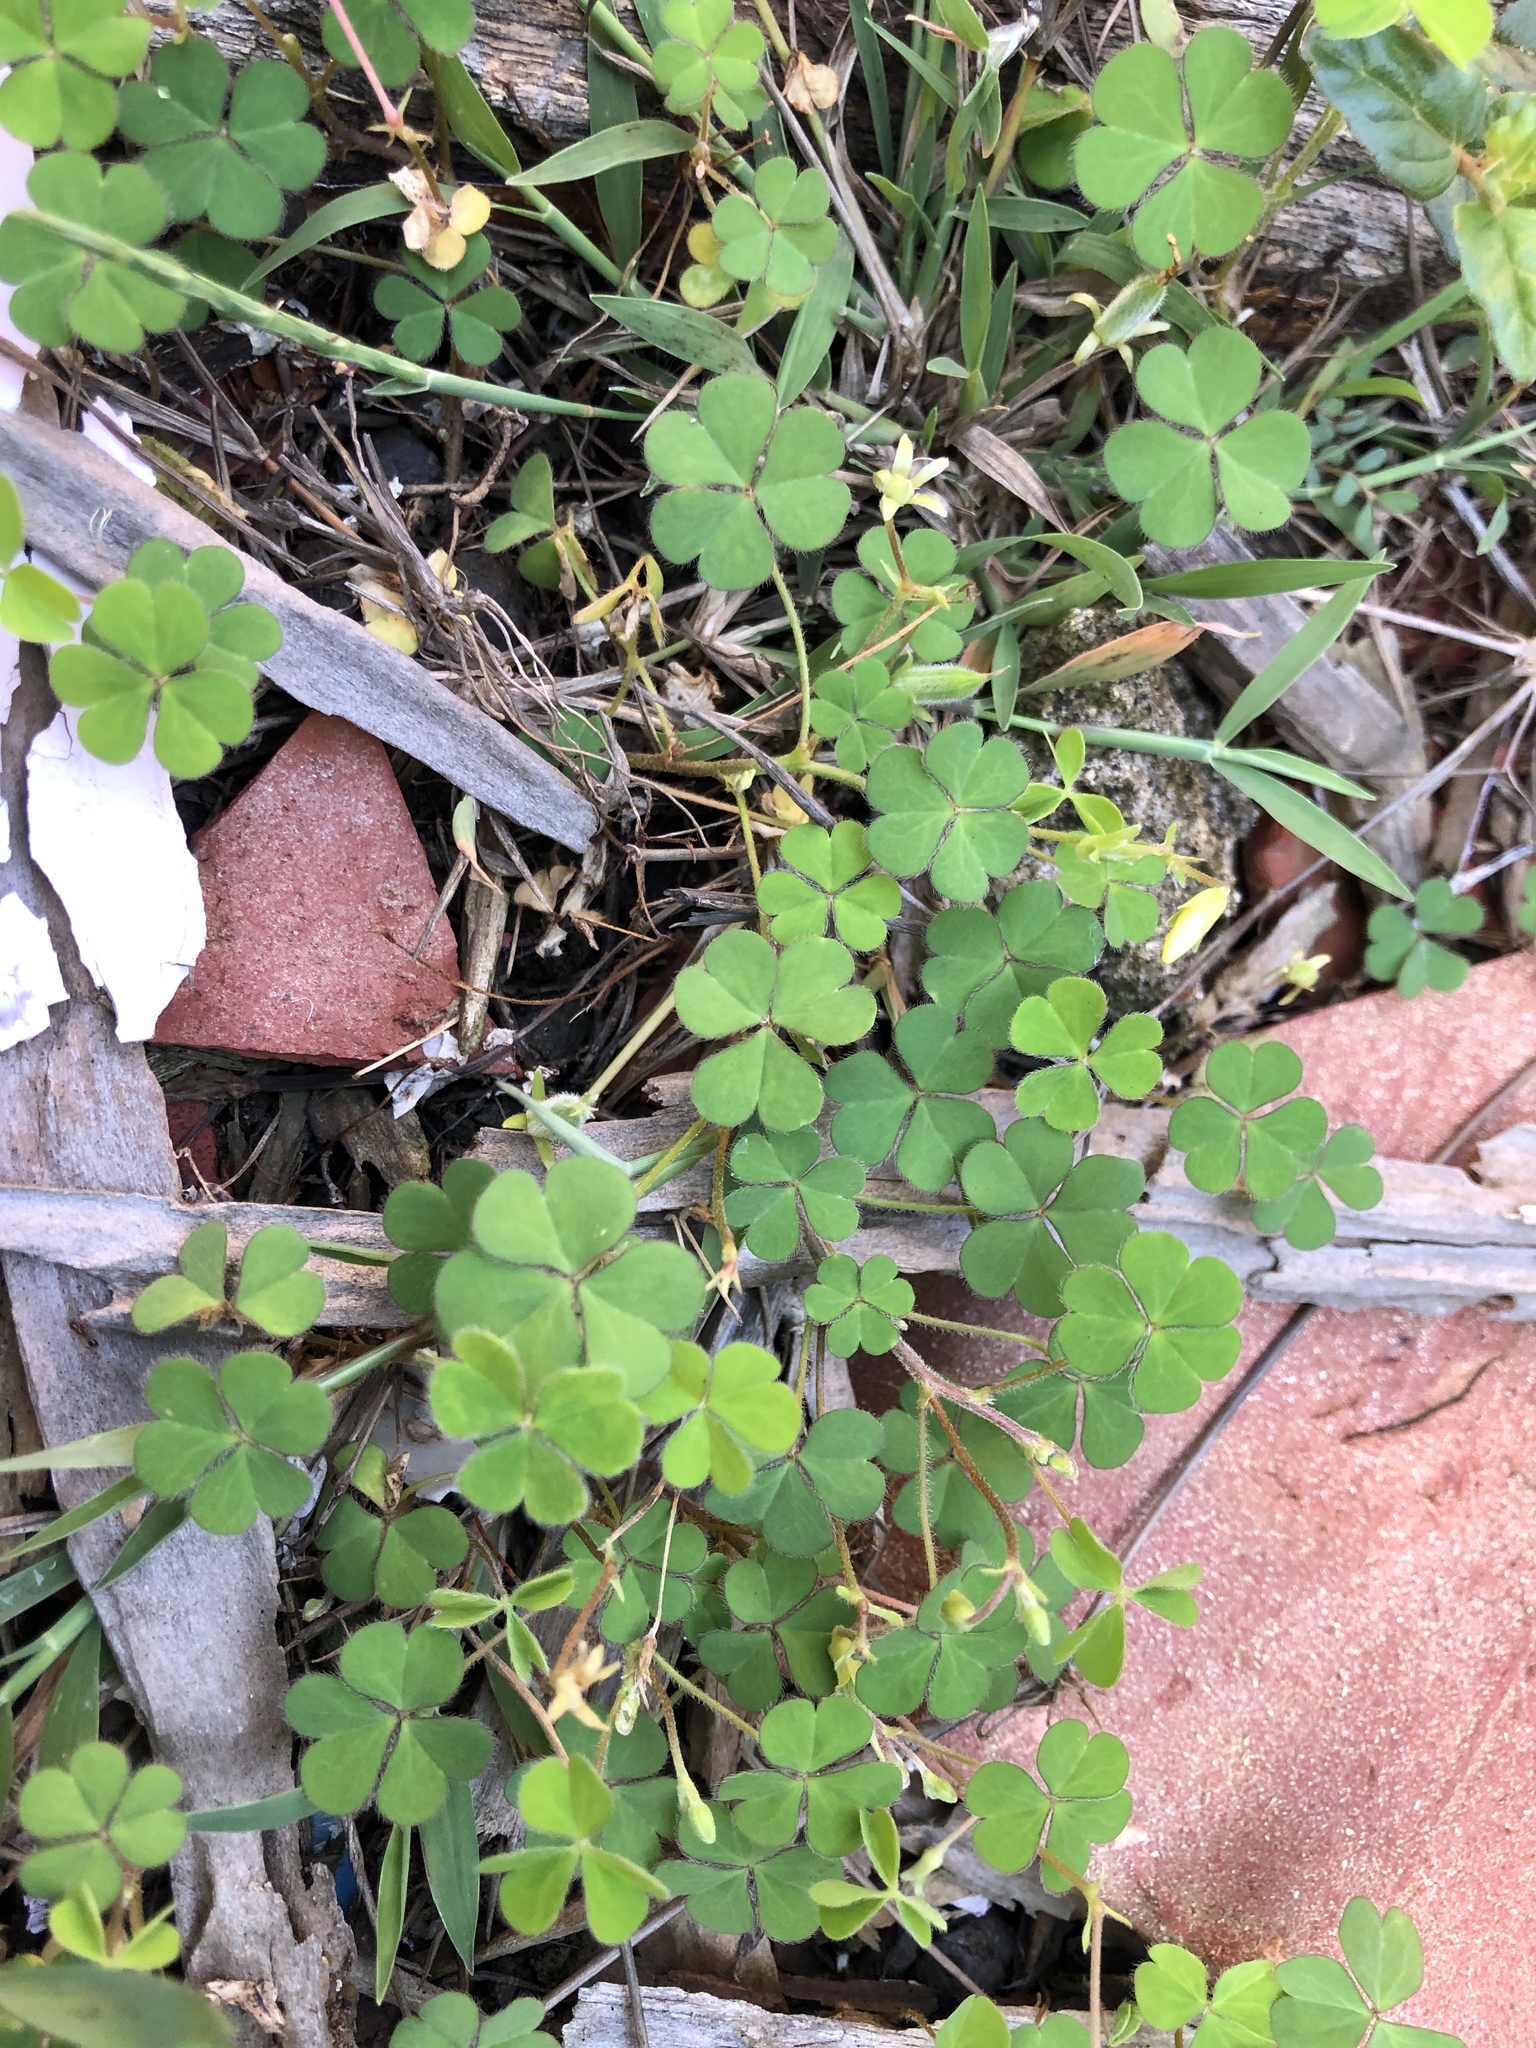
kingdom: Plantae
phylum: Tracheophyta
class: Magnoliopsida
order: Oxalidales
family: Oxalidaceae
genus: Oxalis
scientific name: Oxalis corniculata
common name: Procumbent yellow-sorrel
